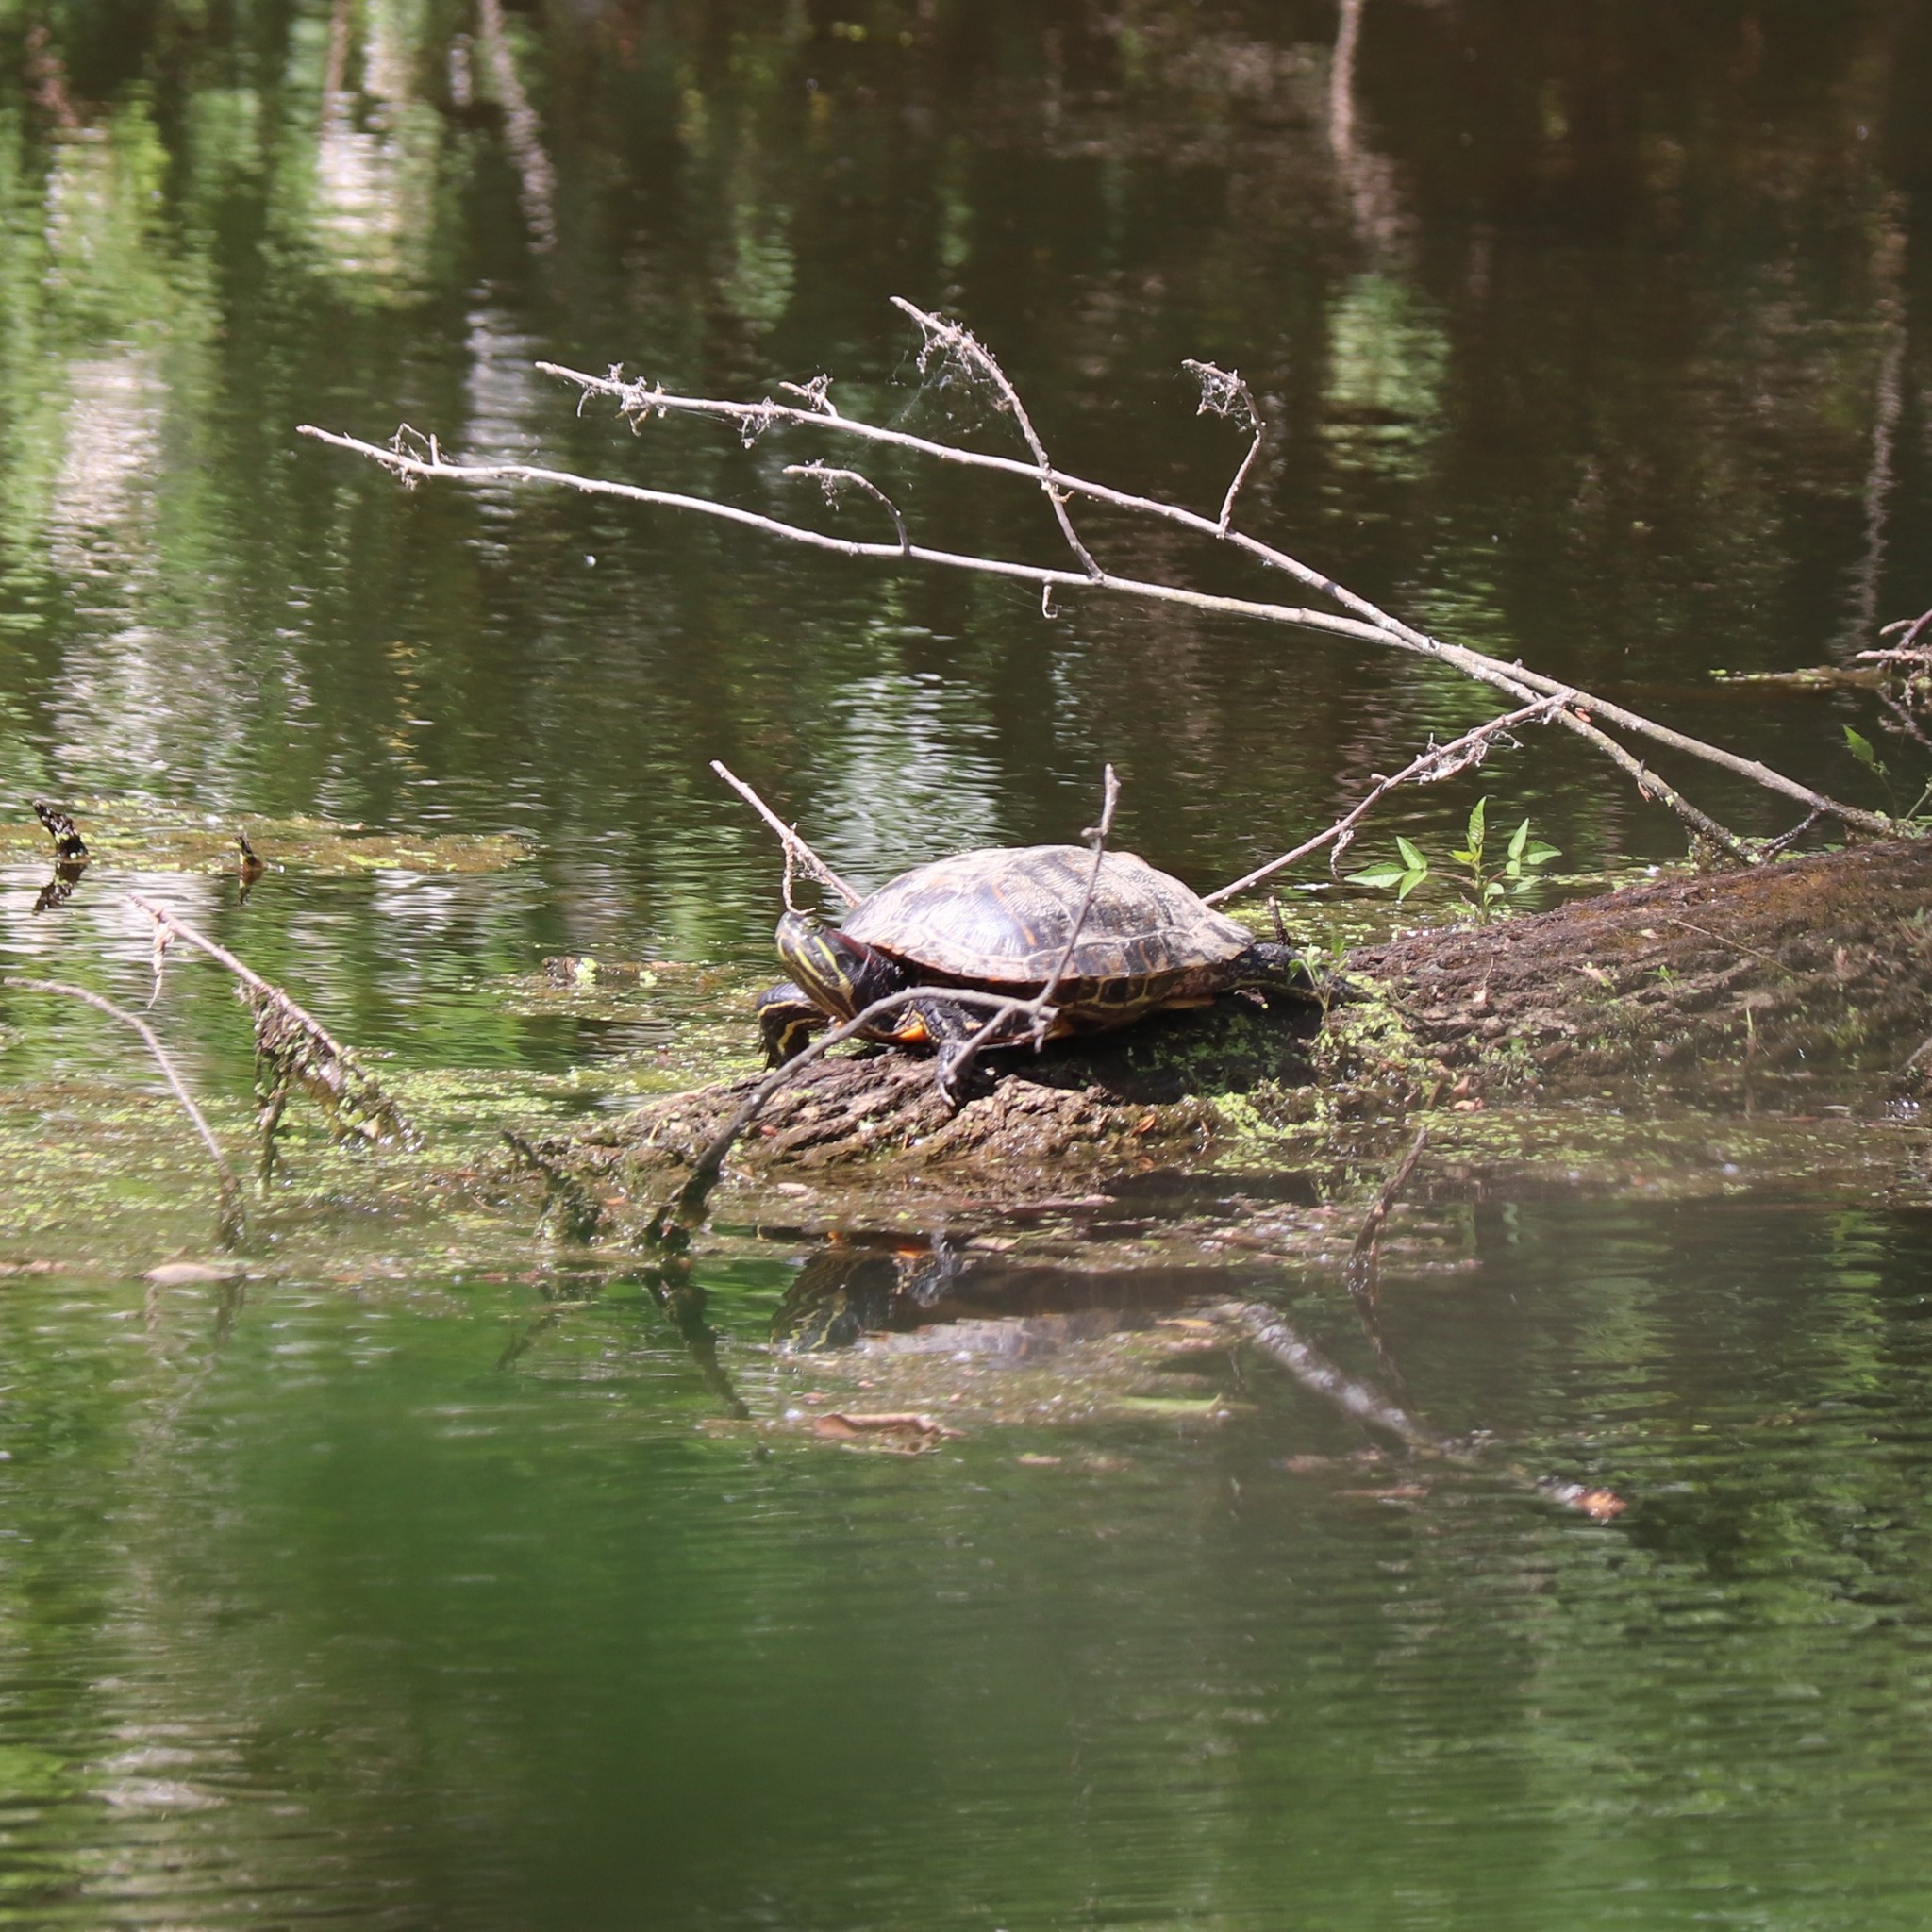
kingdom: Animalia
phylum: Chordata
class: Testudines
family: Emydidae
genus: Trachemys
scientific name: Trachemys scripta
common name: Slider
